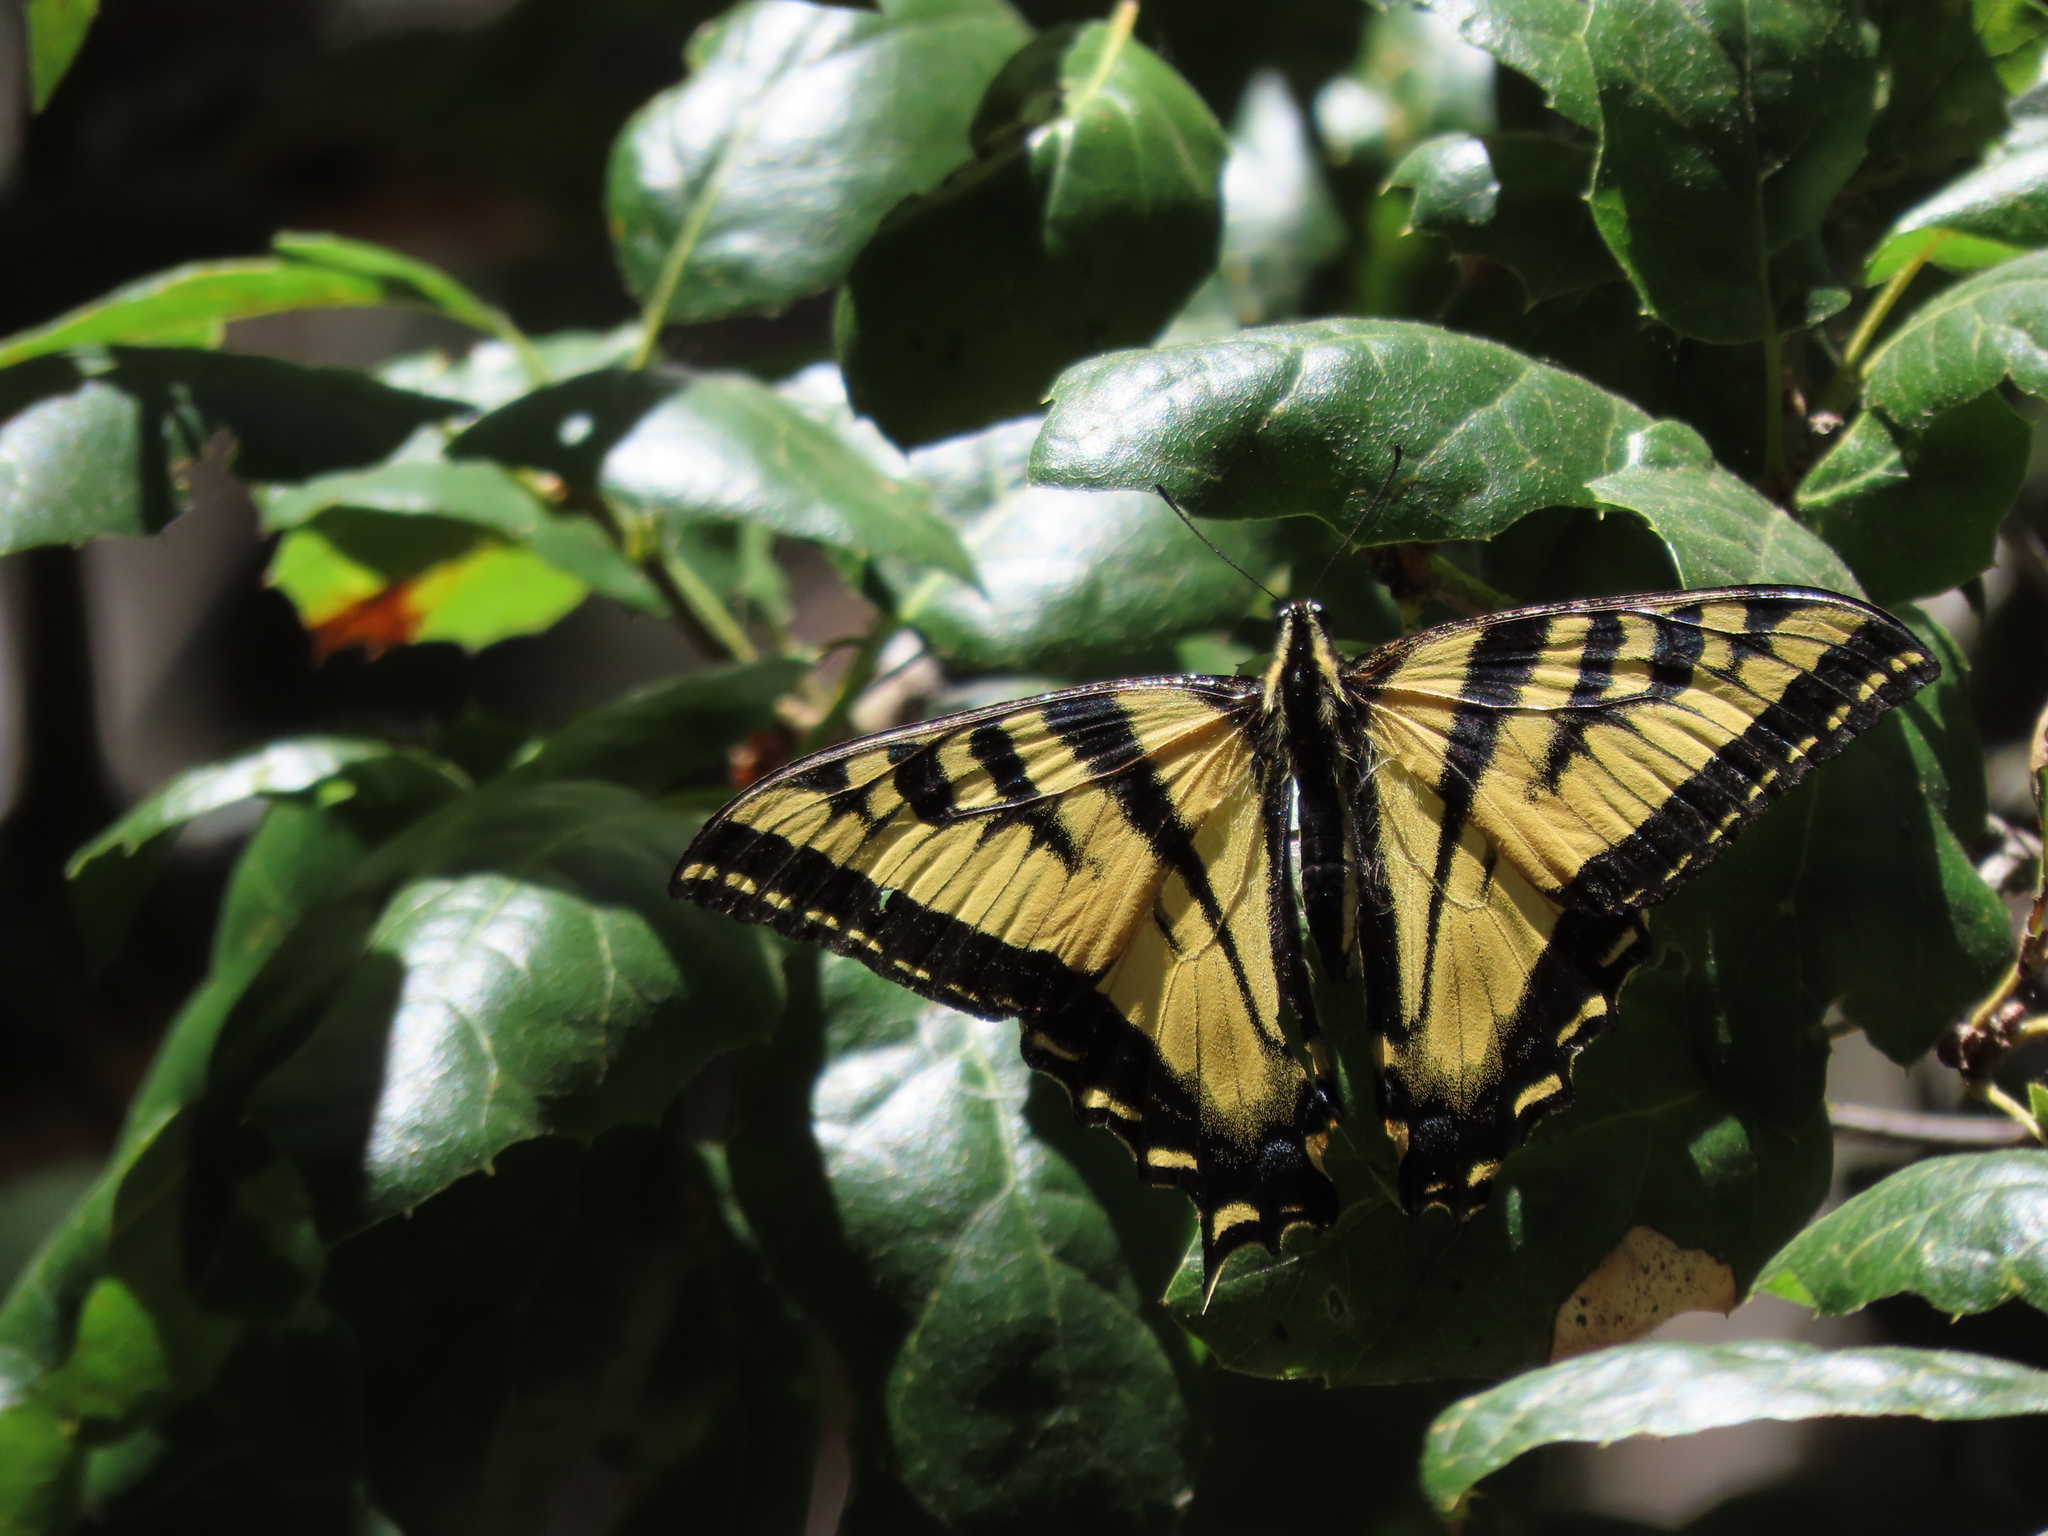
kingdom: Animalia
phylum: Arthropoda
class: Insecta
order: Lepidoptera
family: Papilionidae
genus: Papilio
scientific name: Papilio rutulus
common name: Western tiger swallowtail
